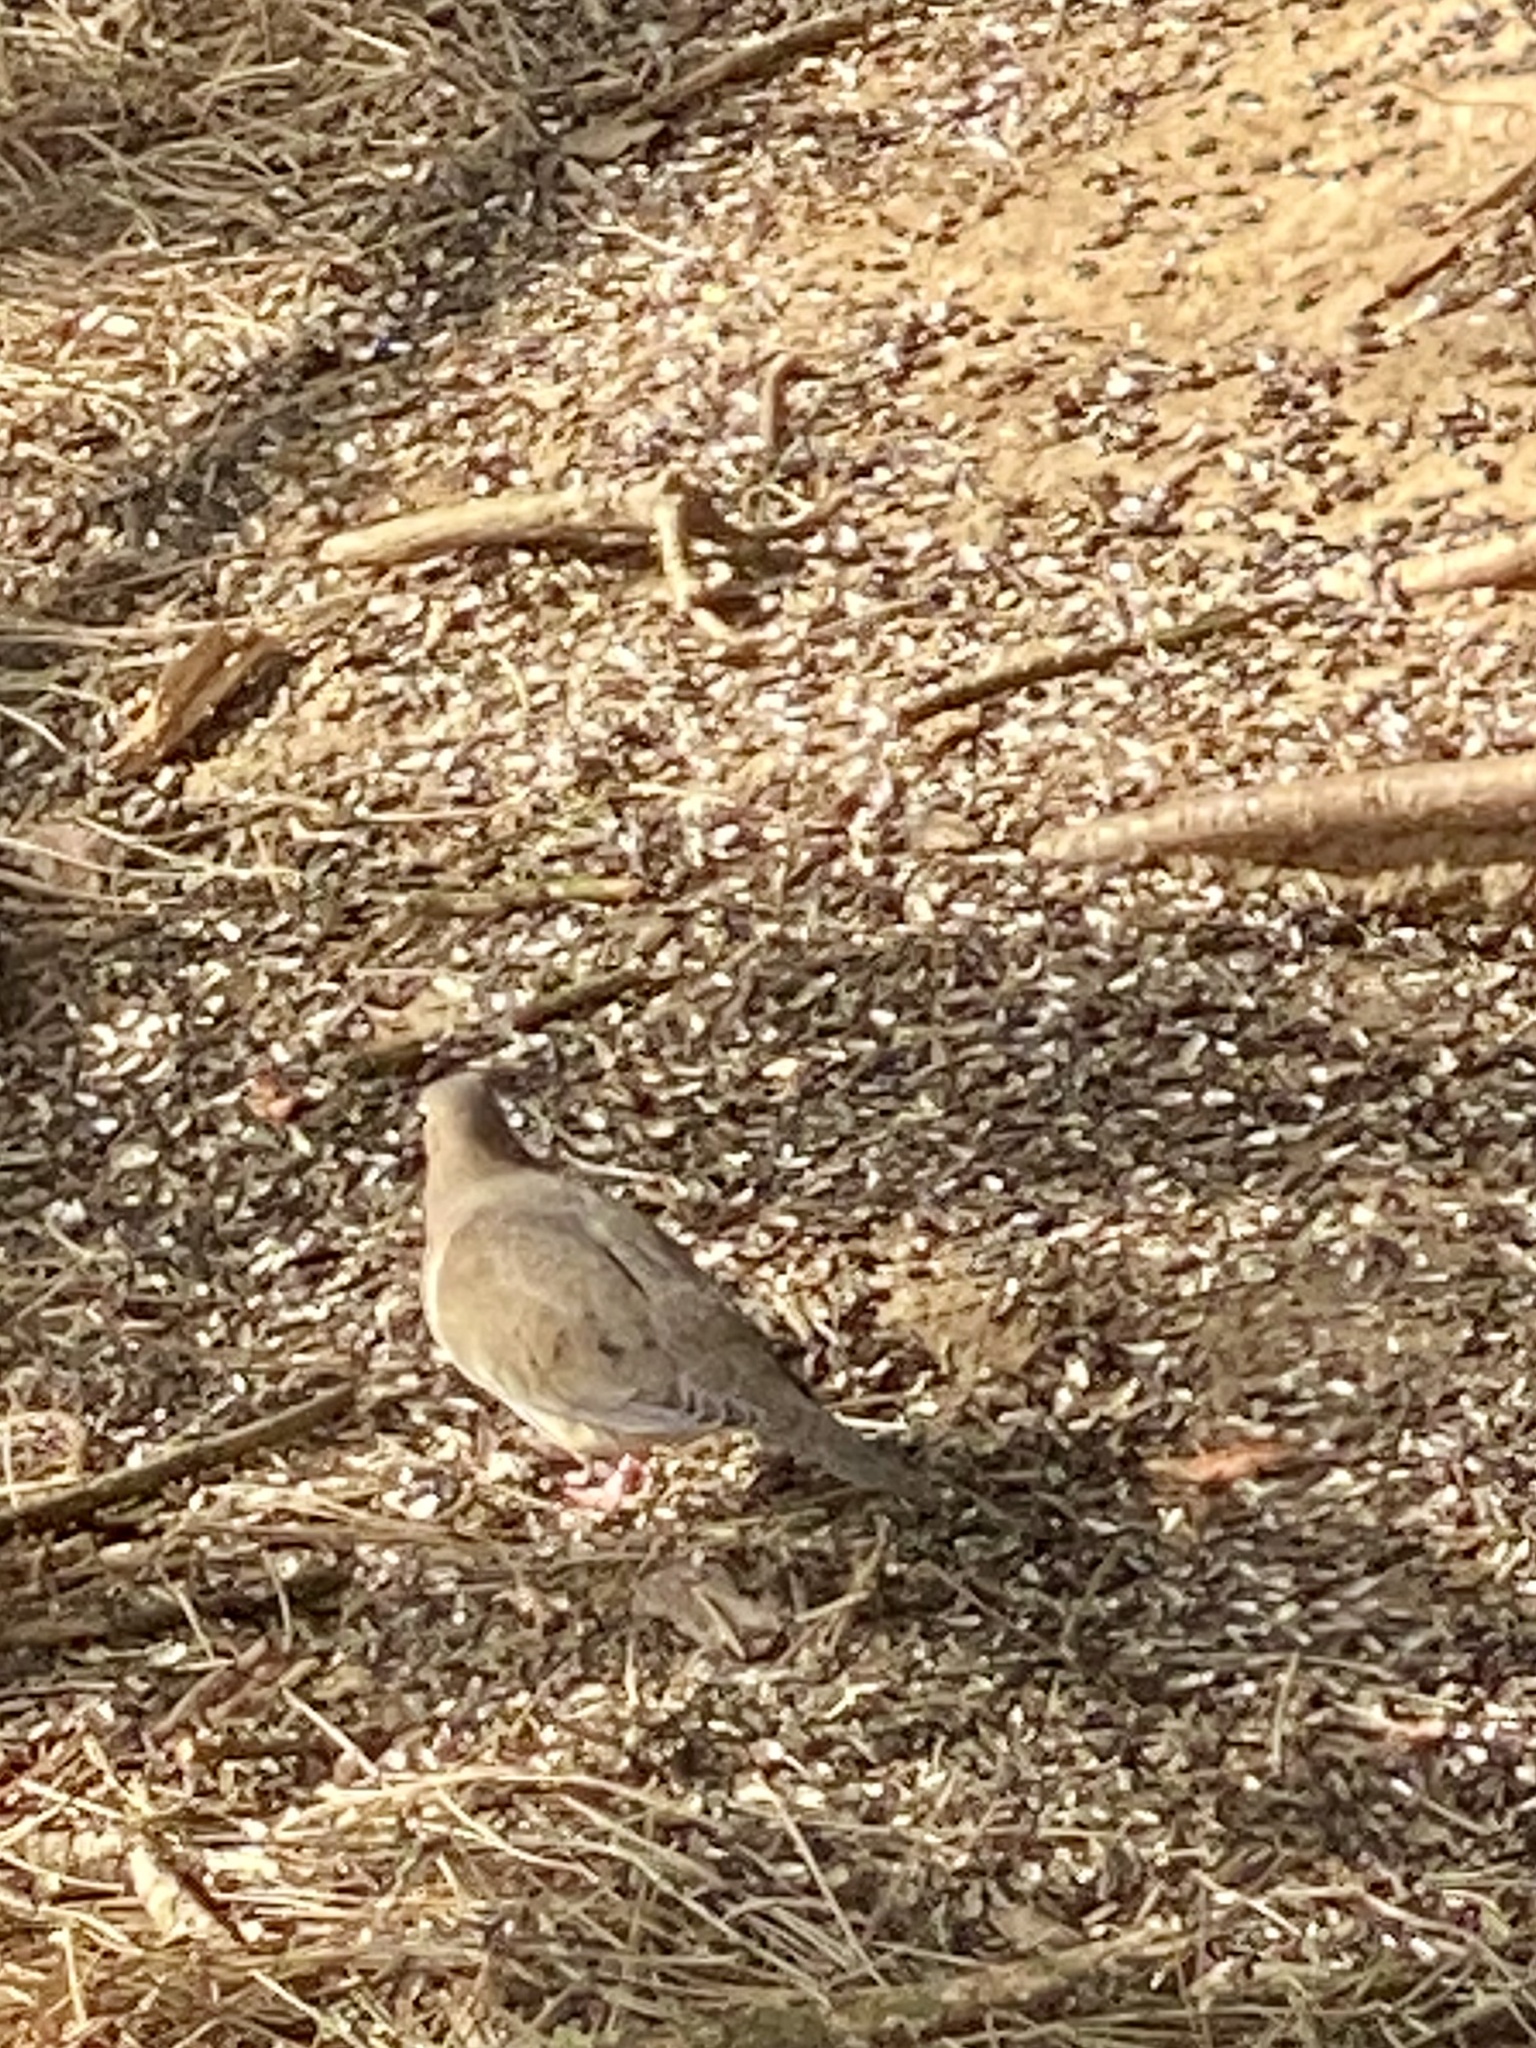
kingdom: Animalia
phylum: Chordata
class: Aves
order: Columbiformes
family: Columbidae
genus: Zenaida
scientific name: Zenaida macroura
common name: Mourning dove
